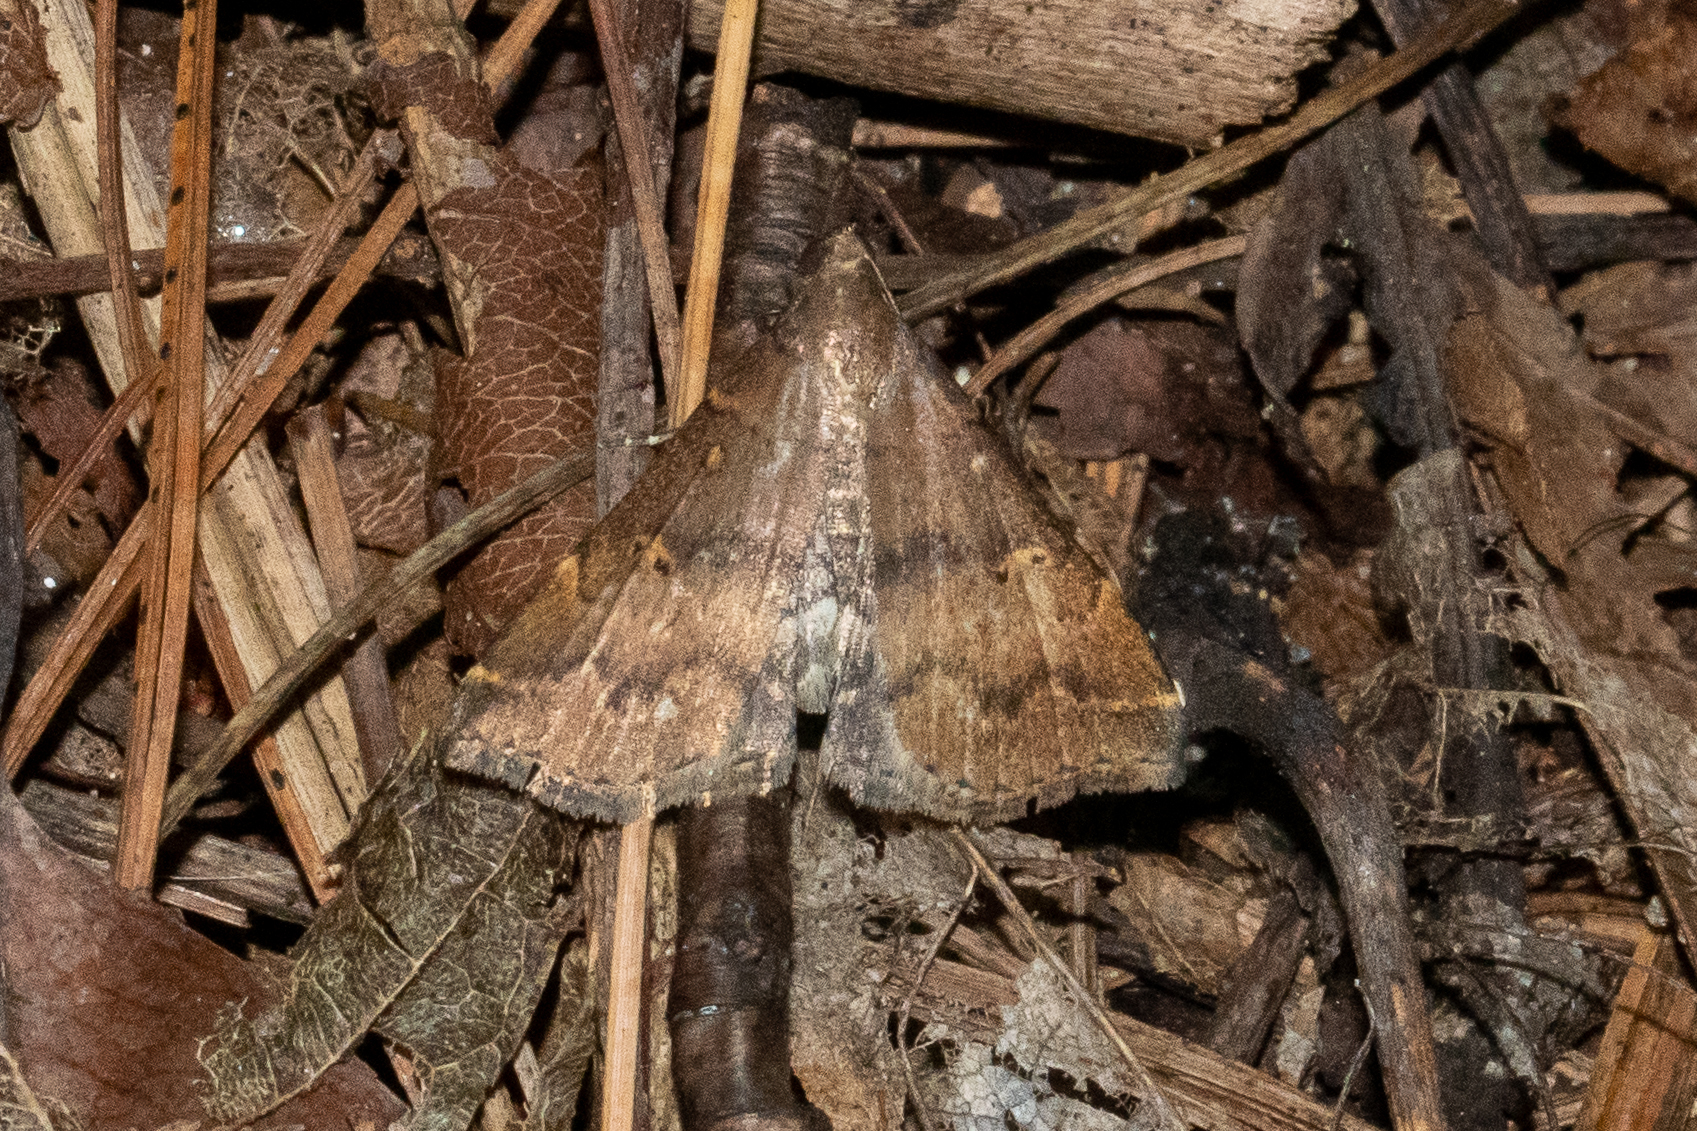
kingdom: Animalia
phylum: Arthropoda
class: Insecta
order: Lepidoptera
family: Erebidae
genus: Renia
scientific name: Renia factiosalis
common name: Sociable renia moth
